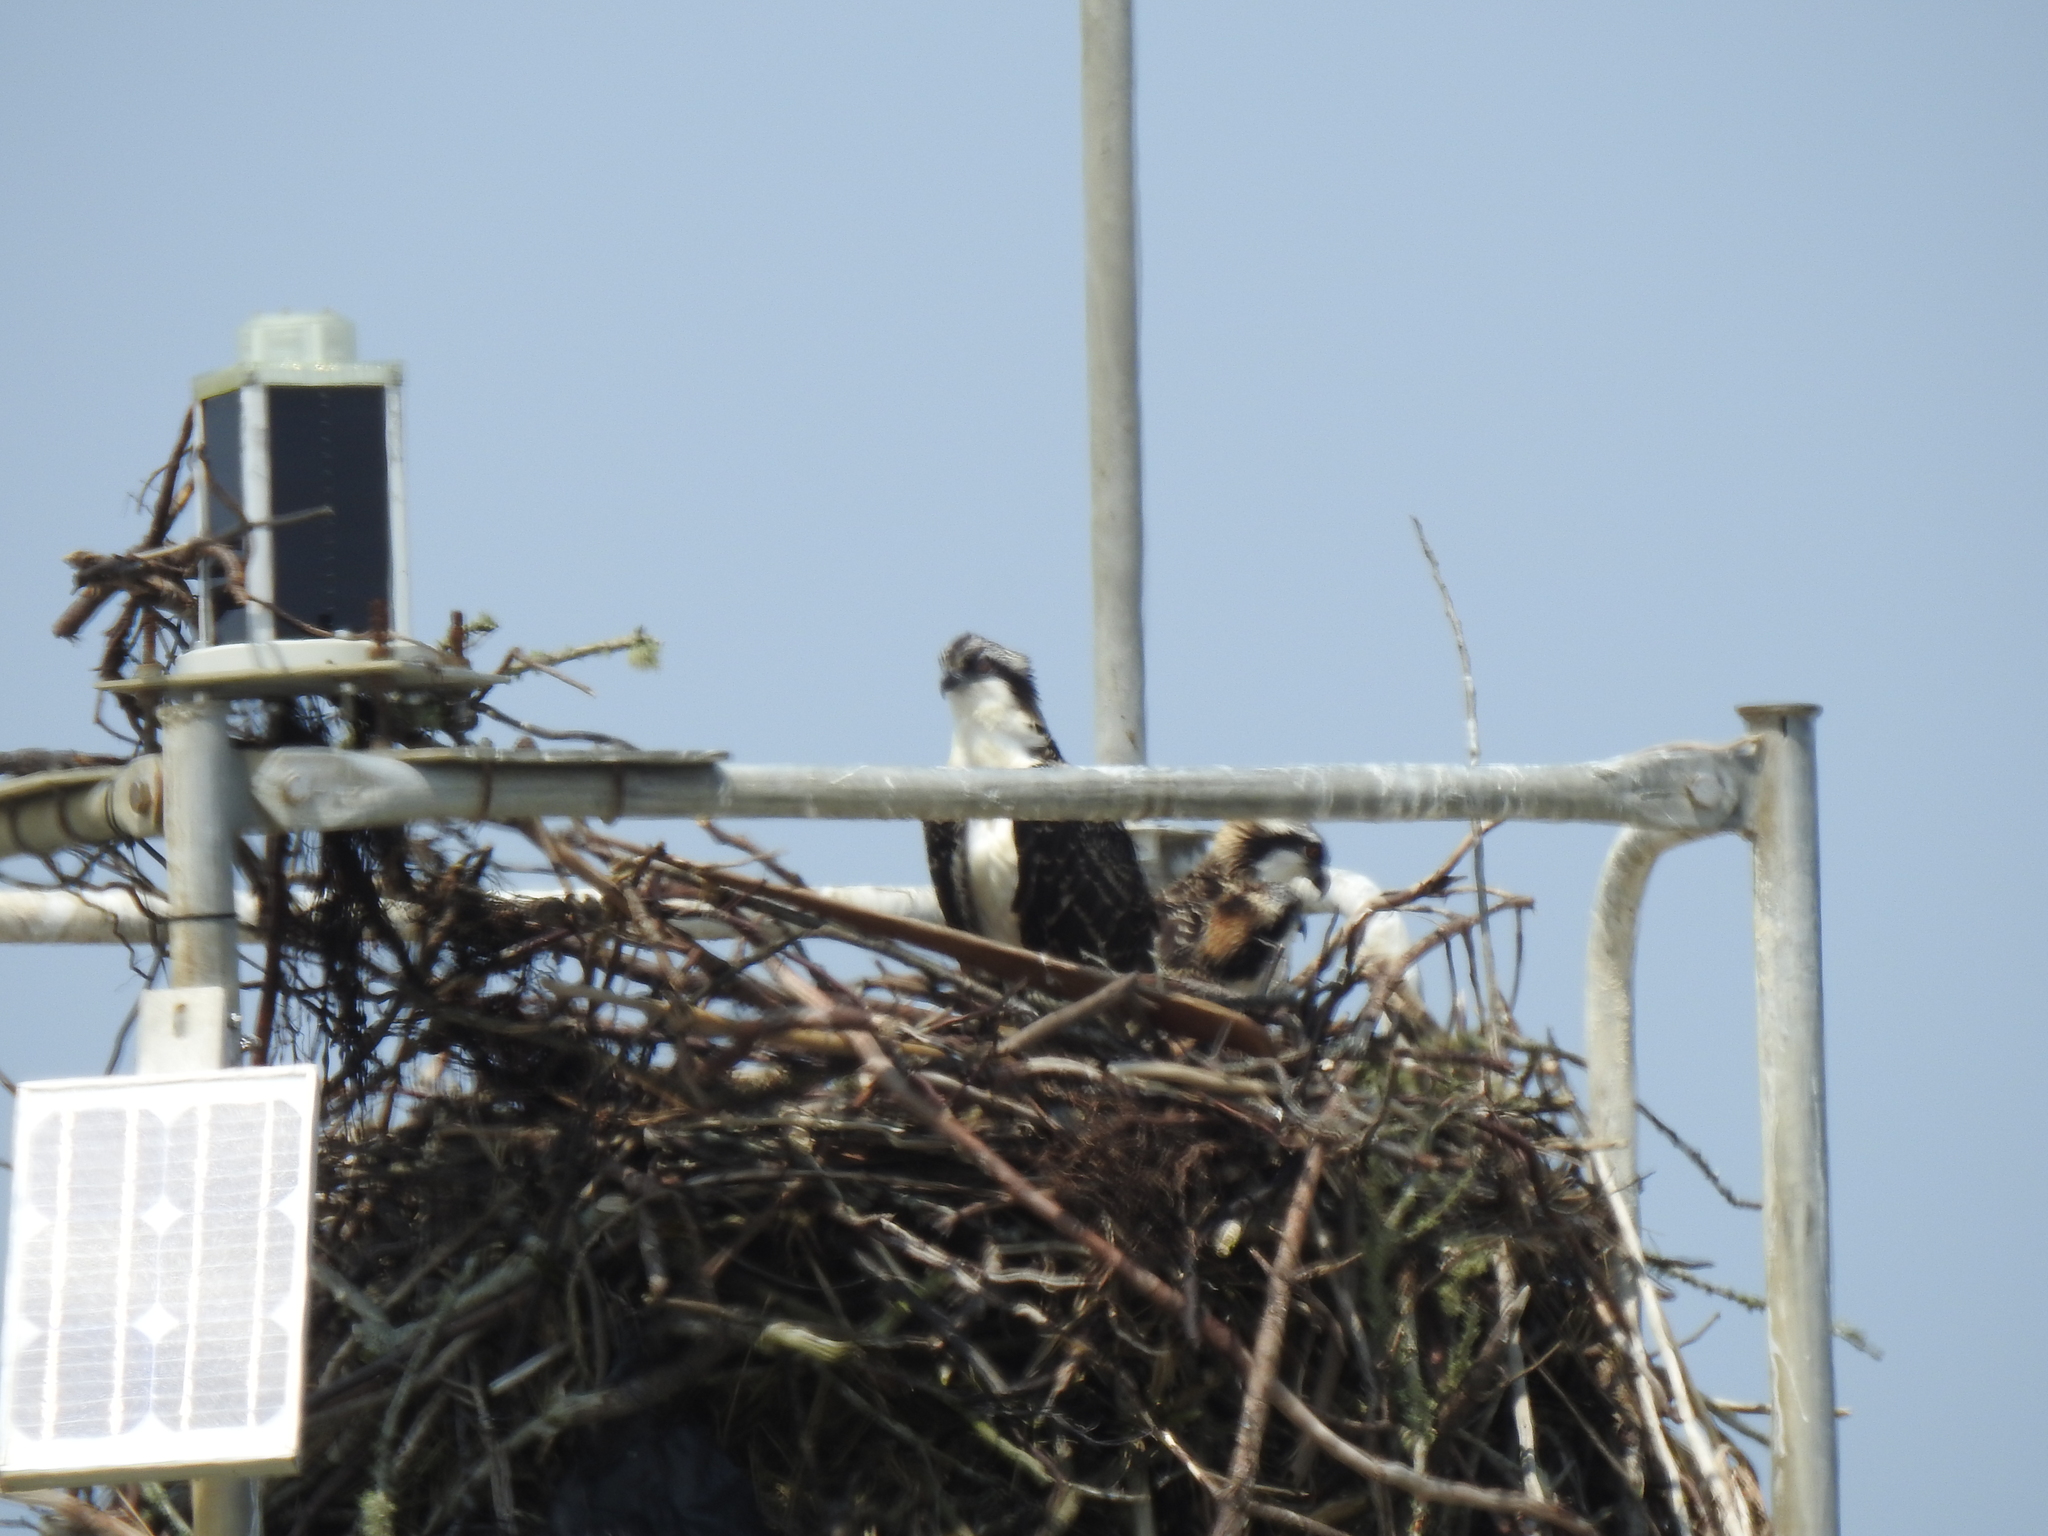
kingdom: Animalia
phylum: Chordata
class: Aves
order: Accipitriformes
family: Pandionidae
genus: Pandion
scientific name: Pandion haliaetus
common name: Osprey
